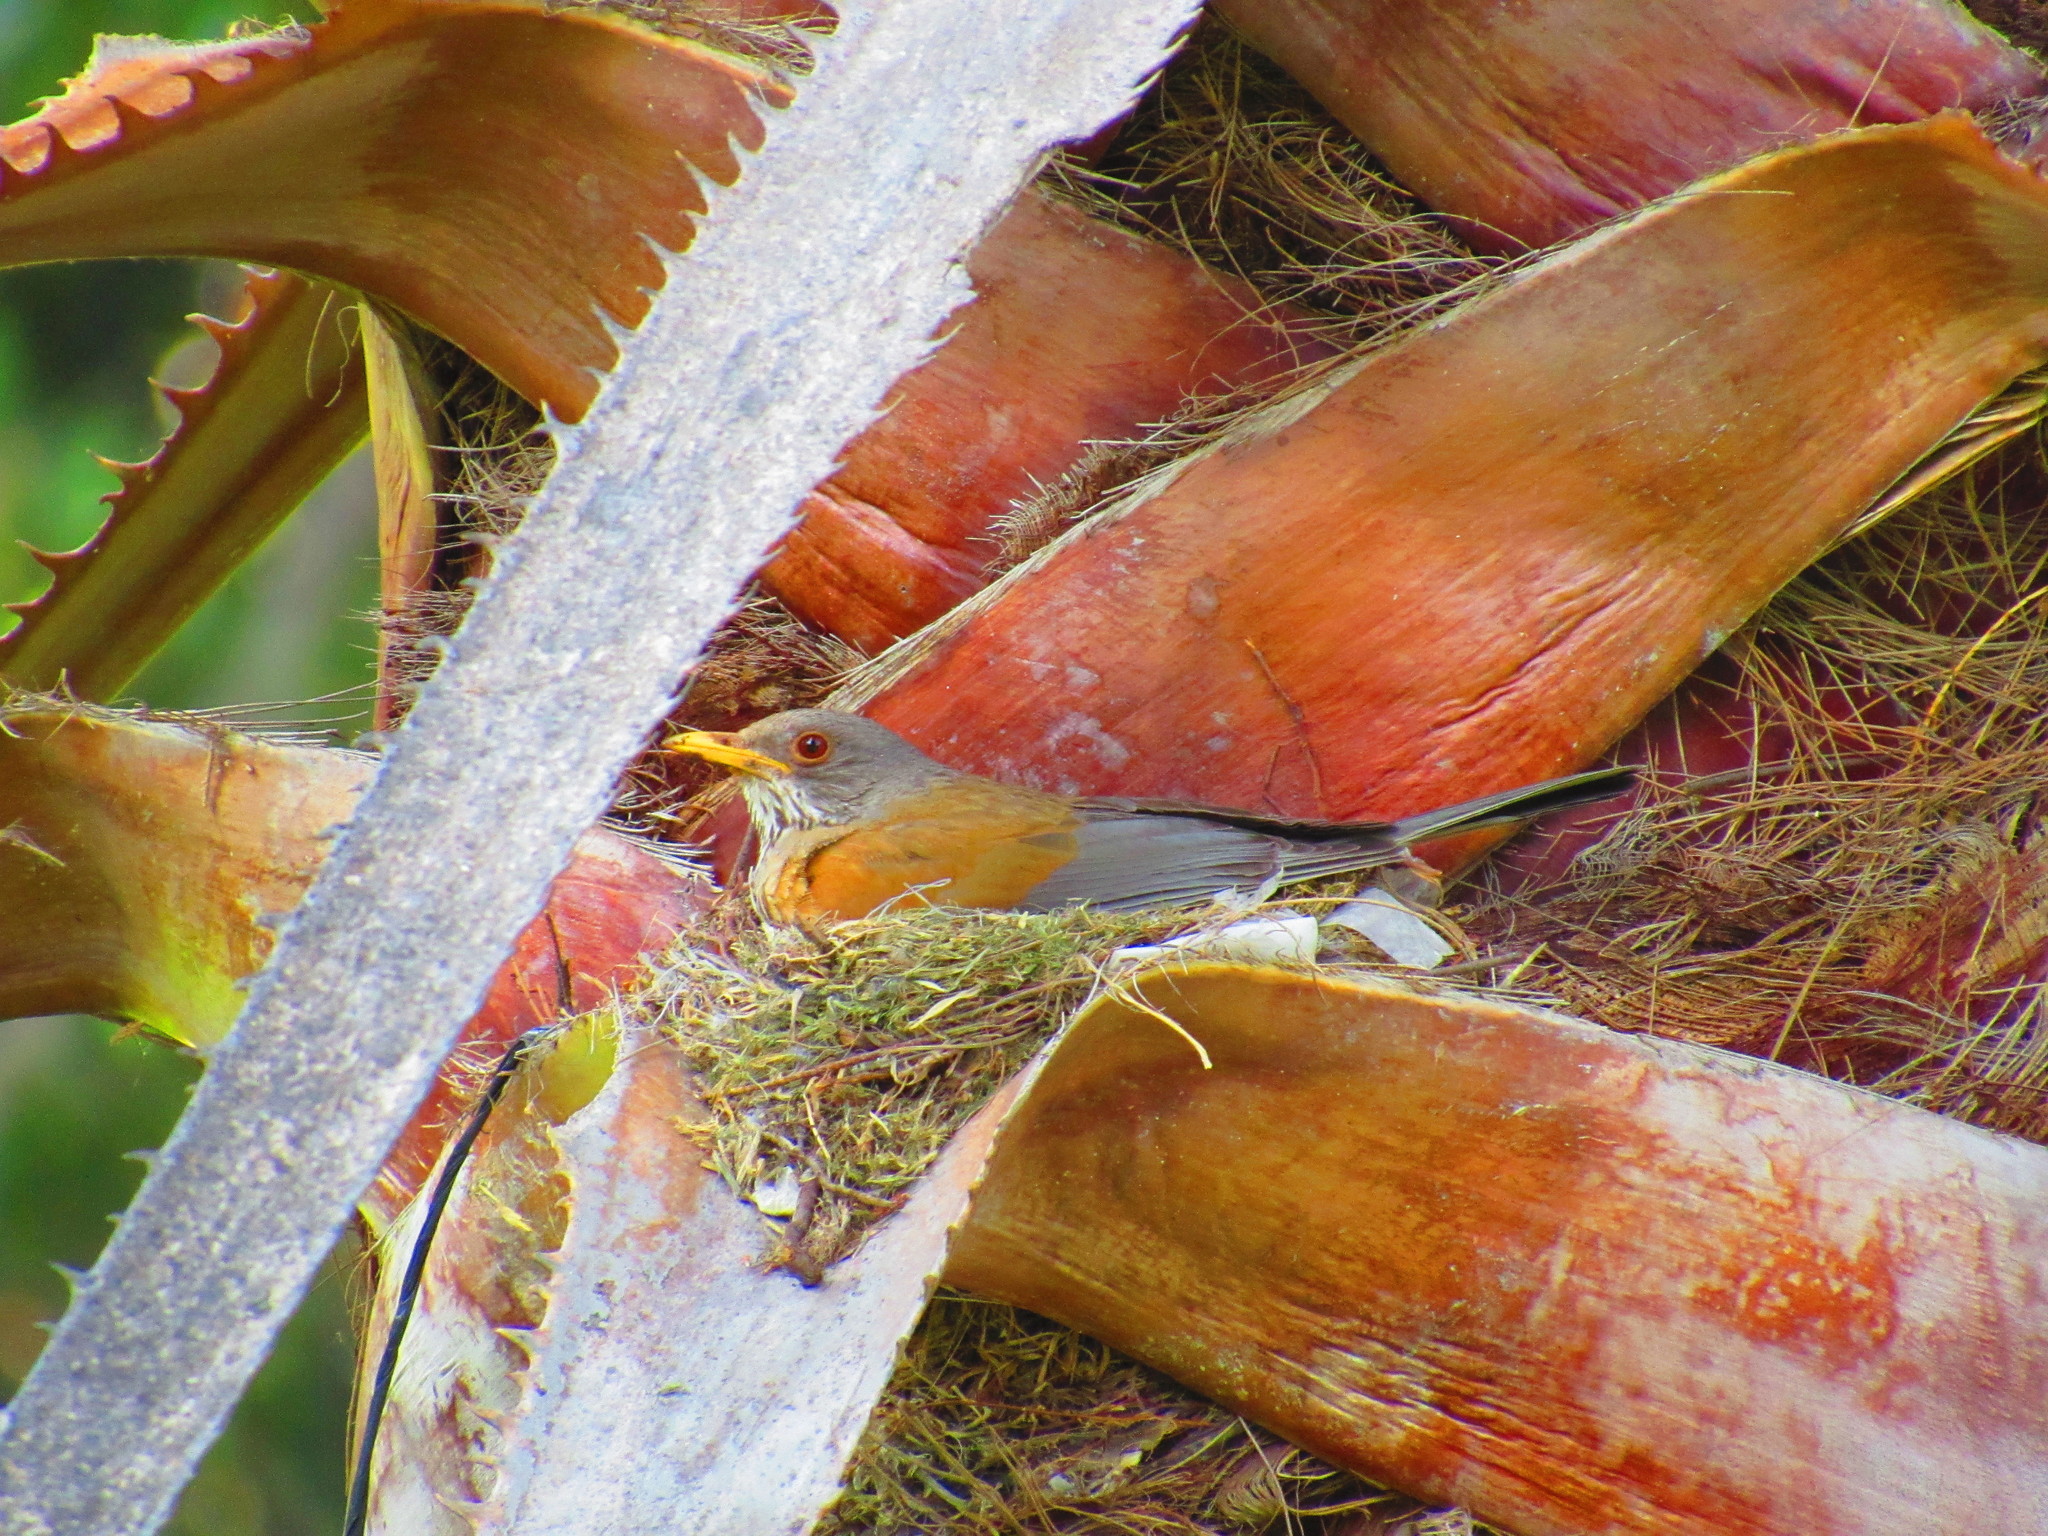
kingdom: Animalia
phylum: Chordata
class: Aves
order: Passeriformes
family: Turdidae
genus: Turdus
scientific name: Turdus rufopalliatus
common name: Rufous-backed robin
